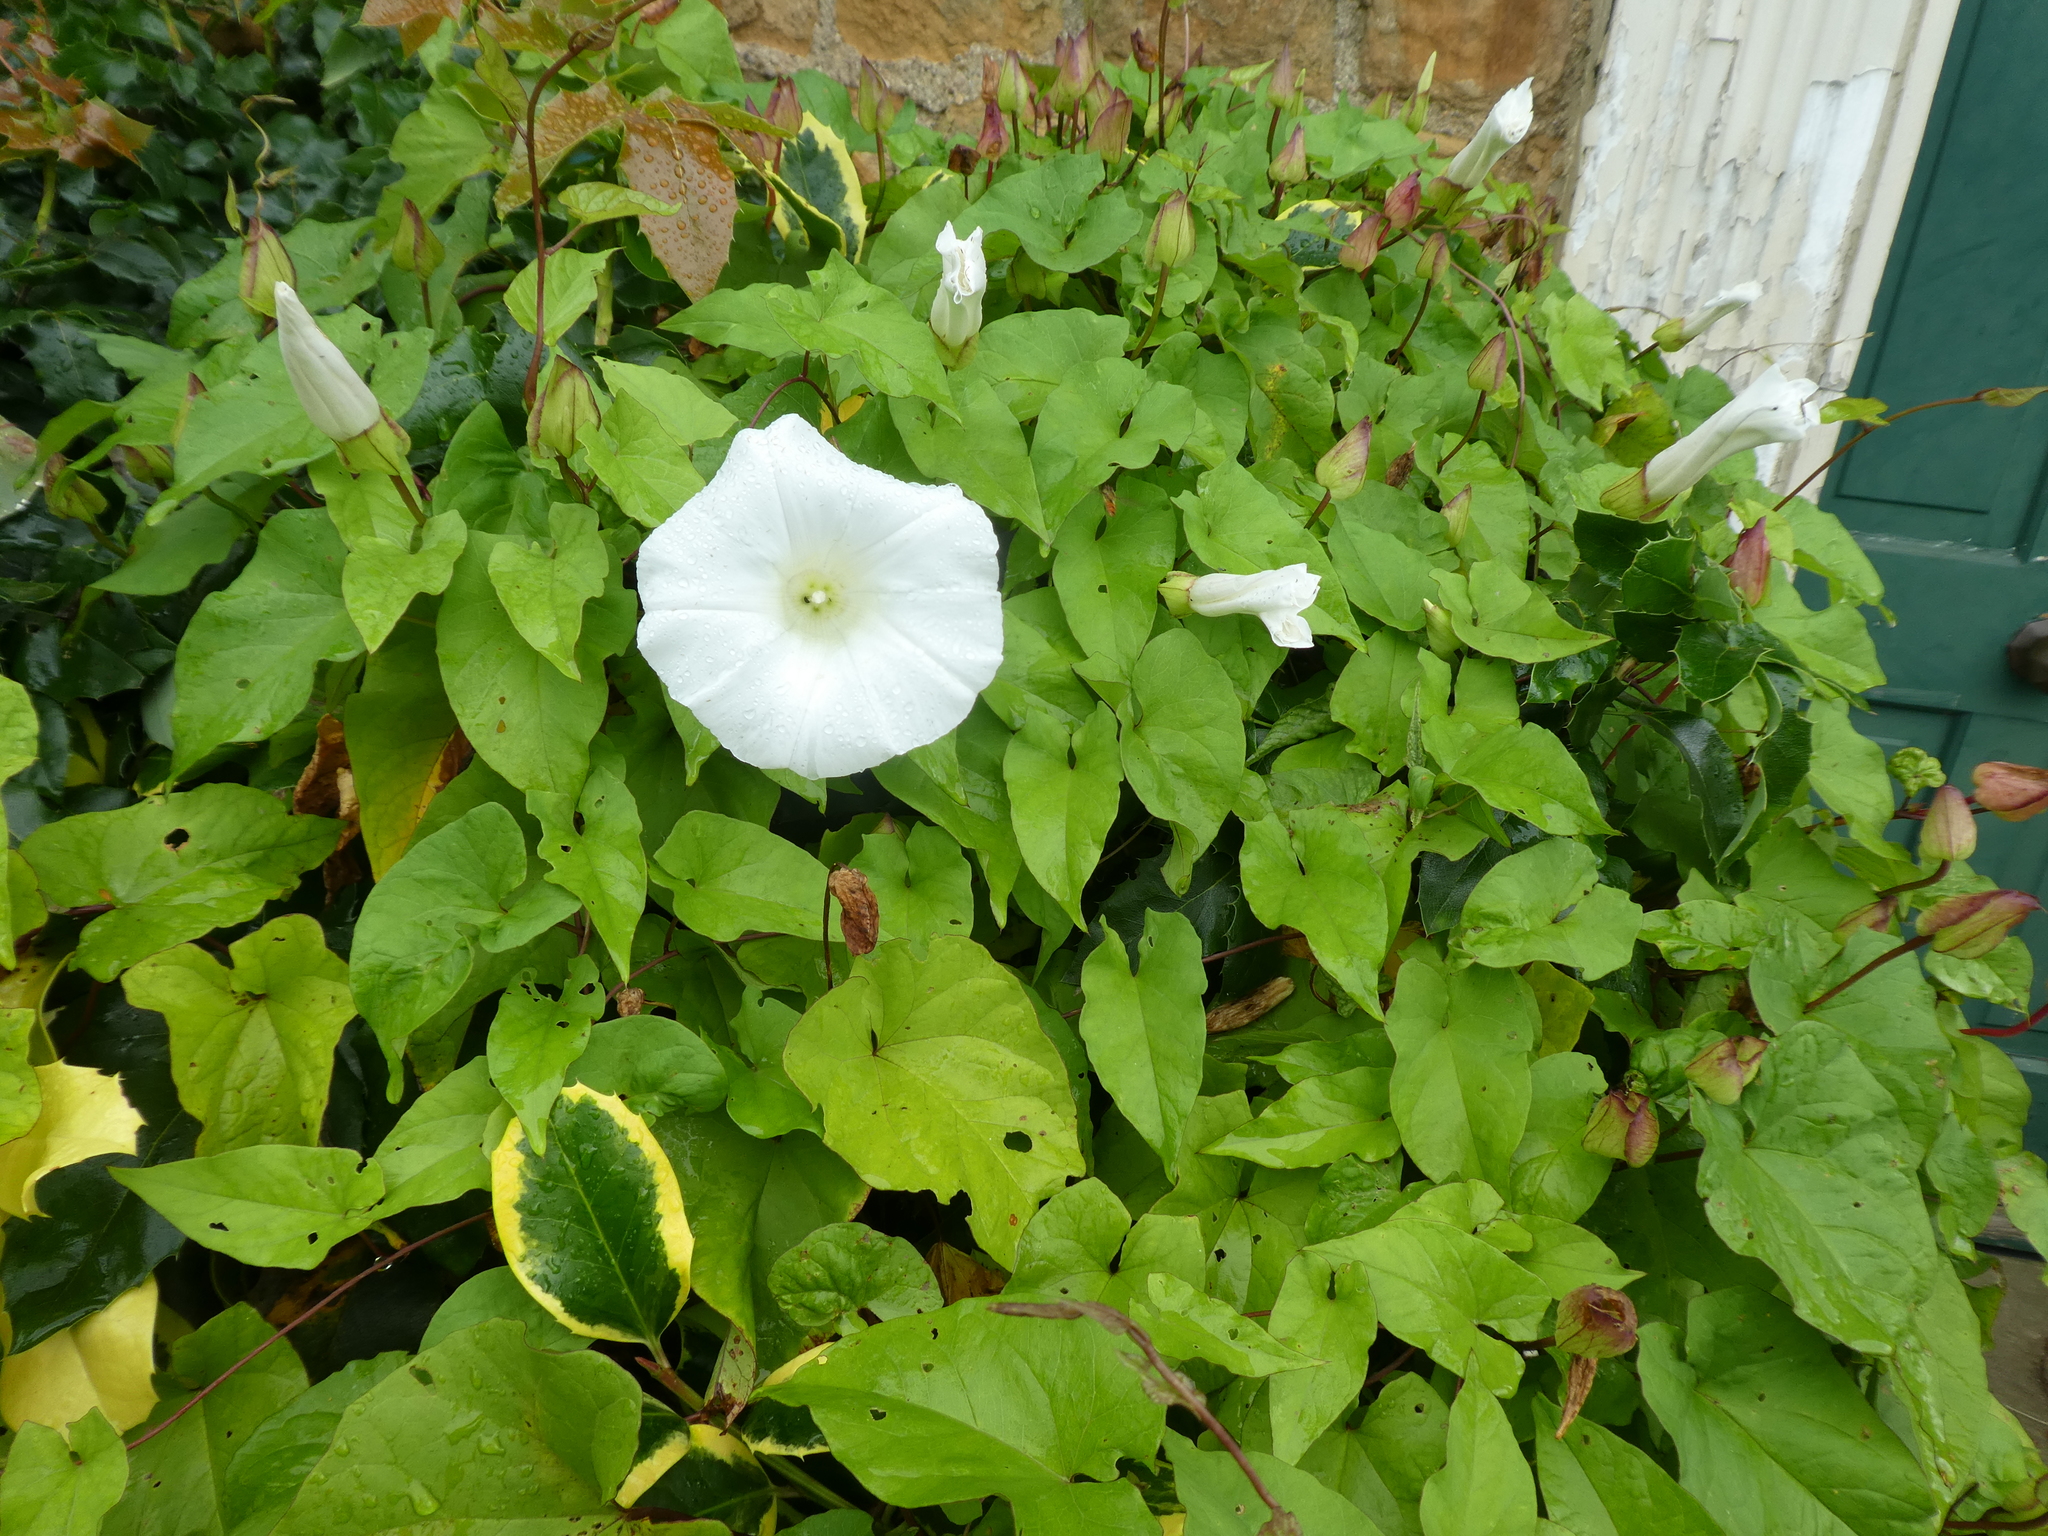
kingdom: Plantae
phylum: Tracheophyta
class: Magnoliopsida
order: Solanales
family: Convolvulaceae
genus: Calystegia
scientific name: Calystegia silvatica
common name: Large bindweed
